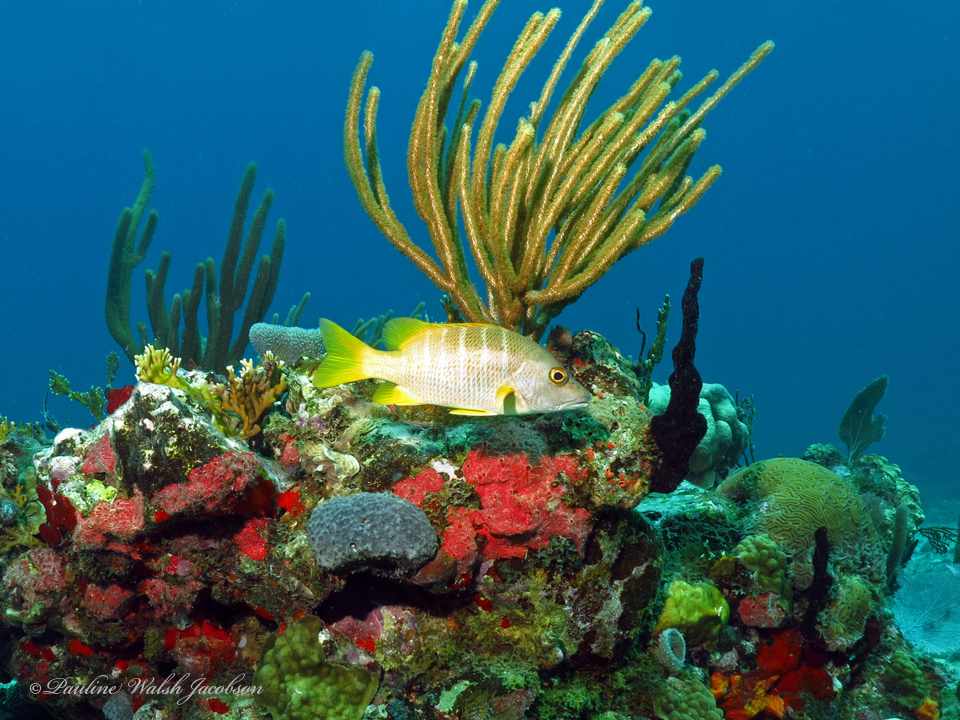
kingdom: Animalia
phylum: Chordata
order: Perciformes
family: Lutjanidae
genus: Lutjanus
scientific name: Lutjanus apodus
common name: Schoolmaster
